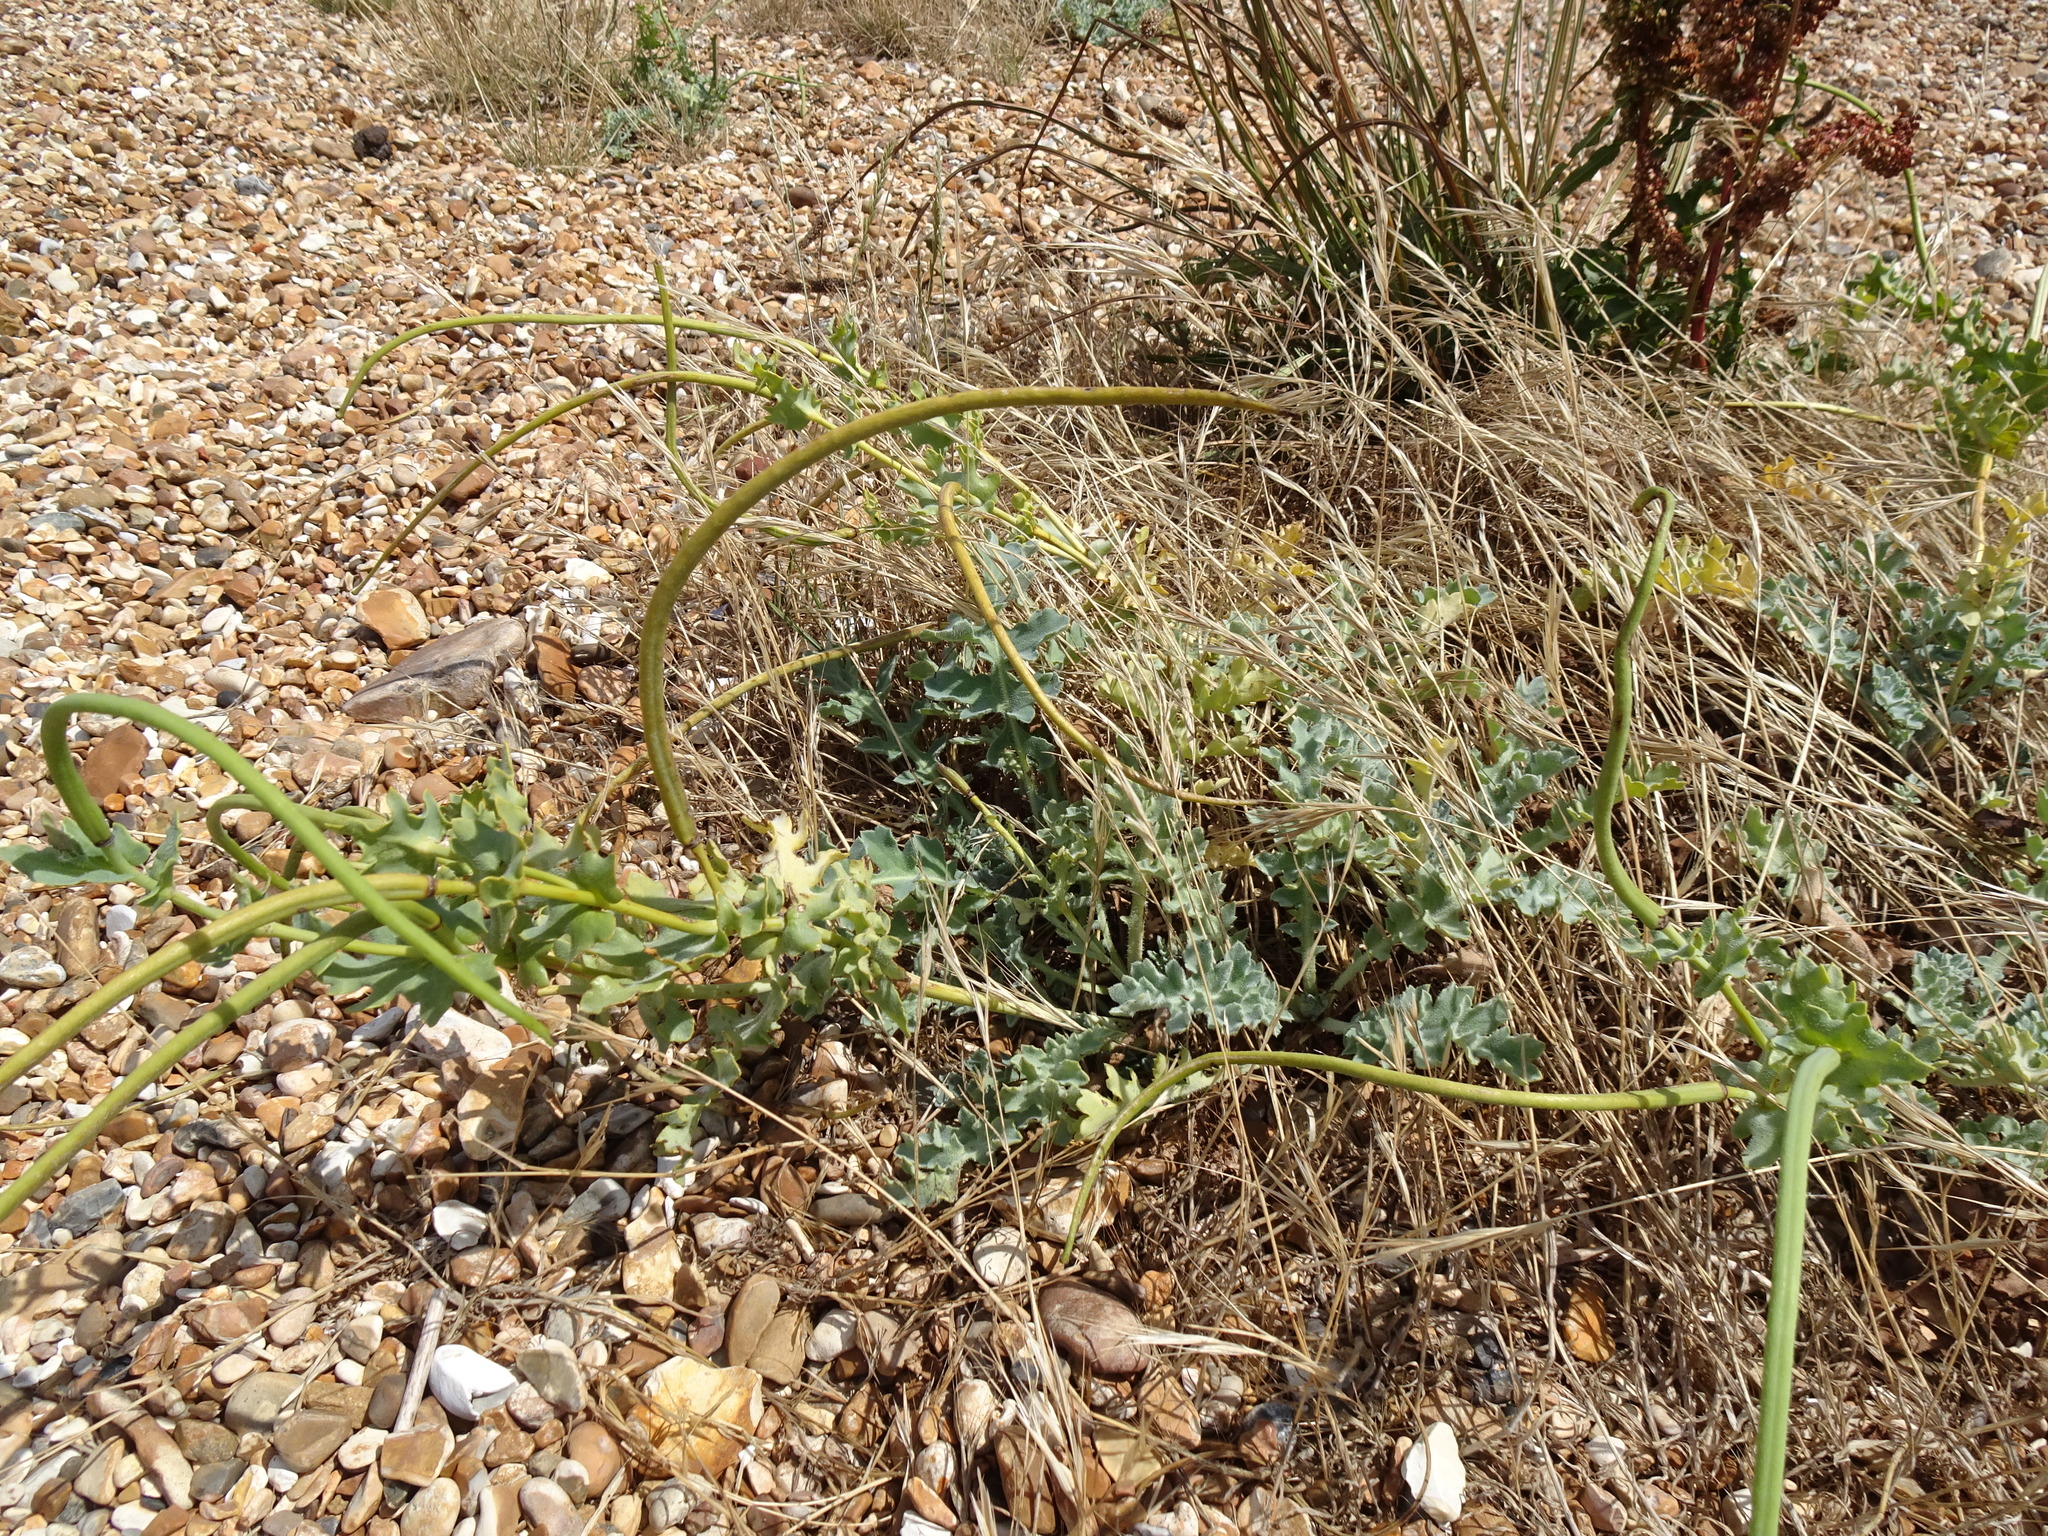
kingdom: Plantae
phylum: Tracheophyta
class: Magnoliopsida
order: Ranunculales
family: Papaveraceae
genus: Glaucium
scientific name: Glaucium flavum
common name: Yellow horned-poppy
